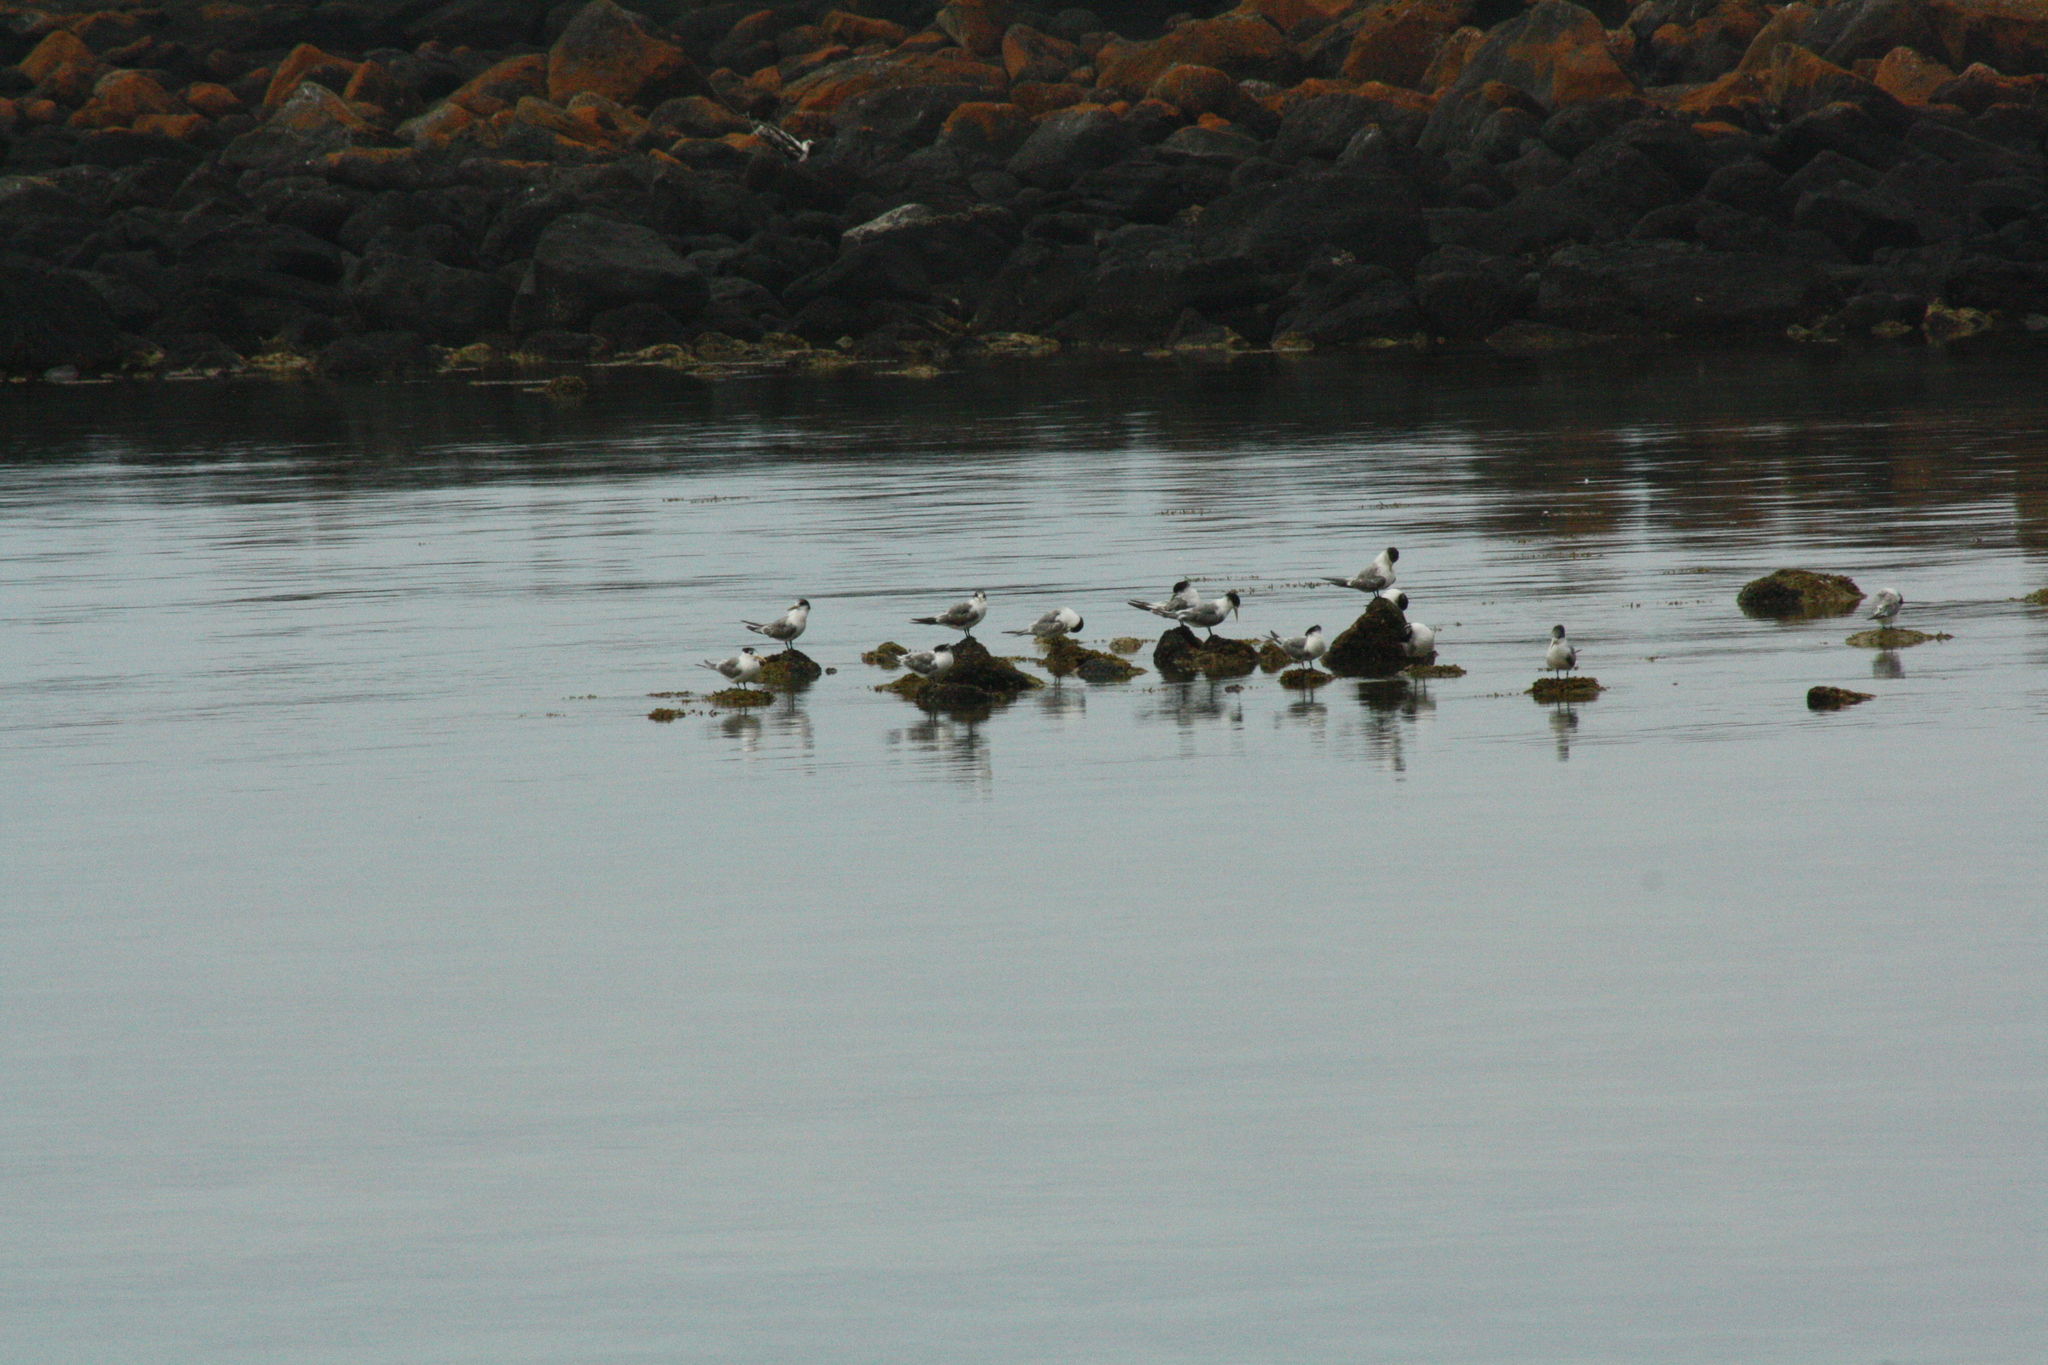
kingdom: Animalia
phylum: Chordata
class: Aves
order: Charadriiformes
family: Laridae
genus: Thalasseus
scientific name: Thalasseus bergii
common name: Greater crested tern
